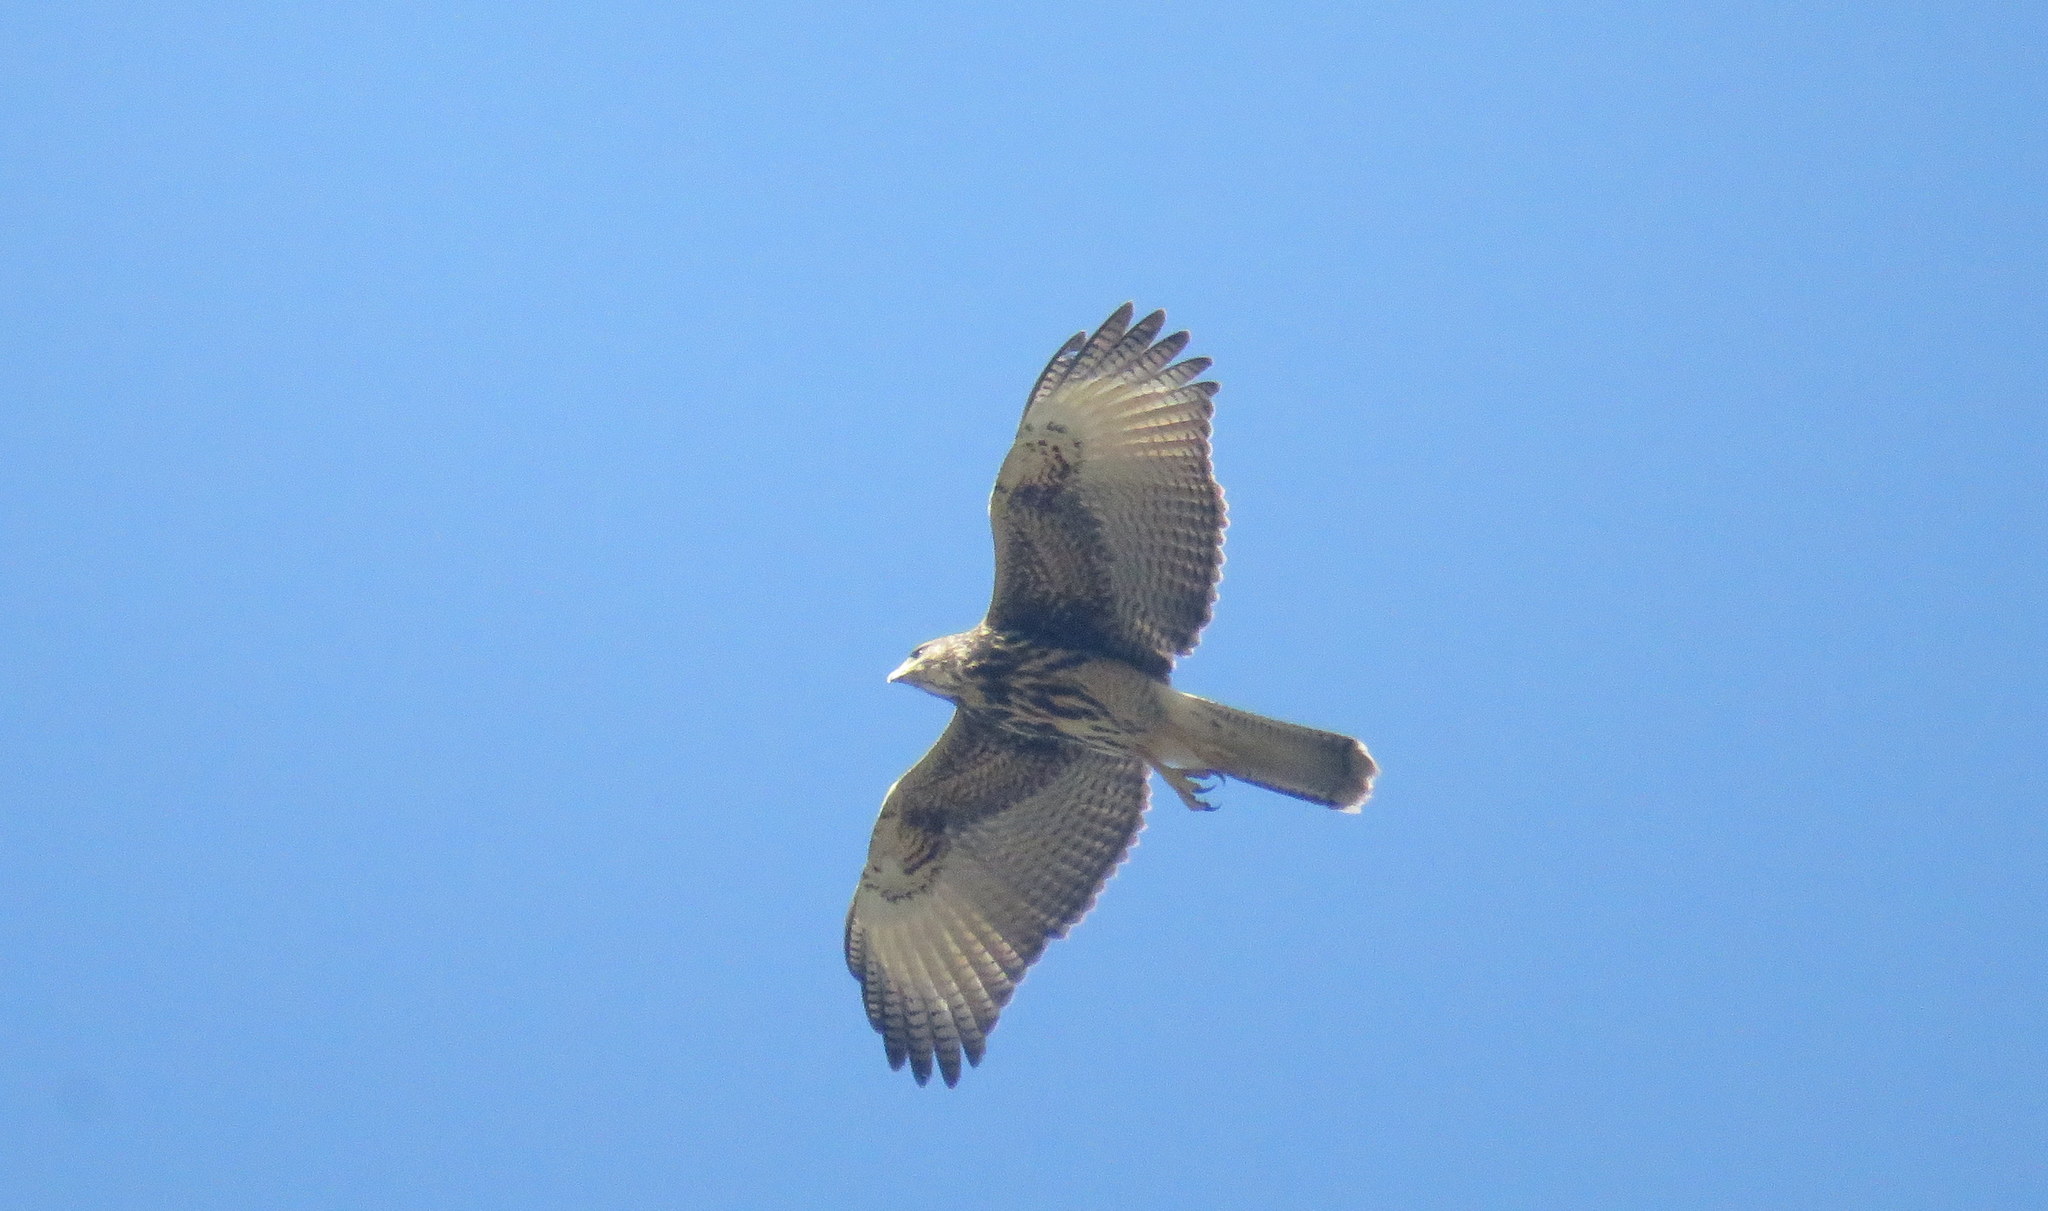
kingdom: Animalia
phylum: Chordata
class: Aves
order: Accipitriformes
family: Accipitridae
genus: Parabuteo
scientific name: Parabuteo unicinctus
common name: Harris's hawk
